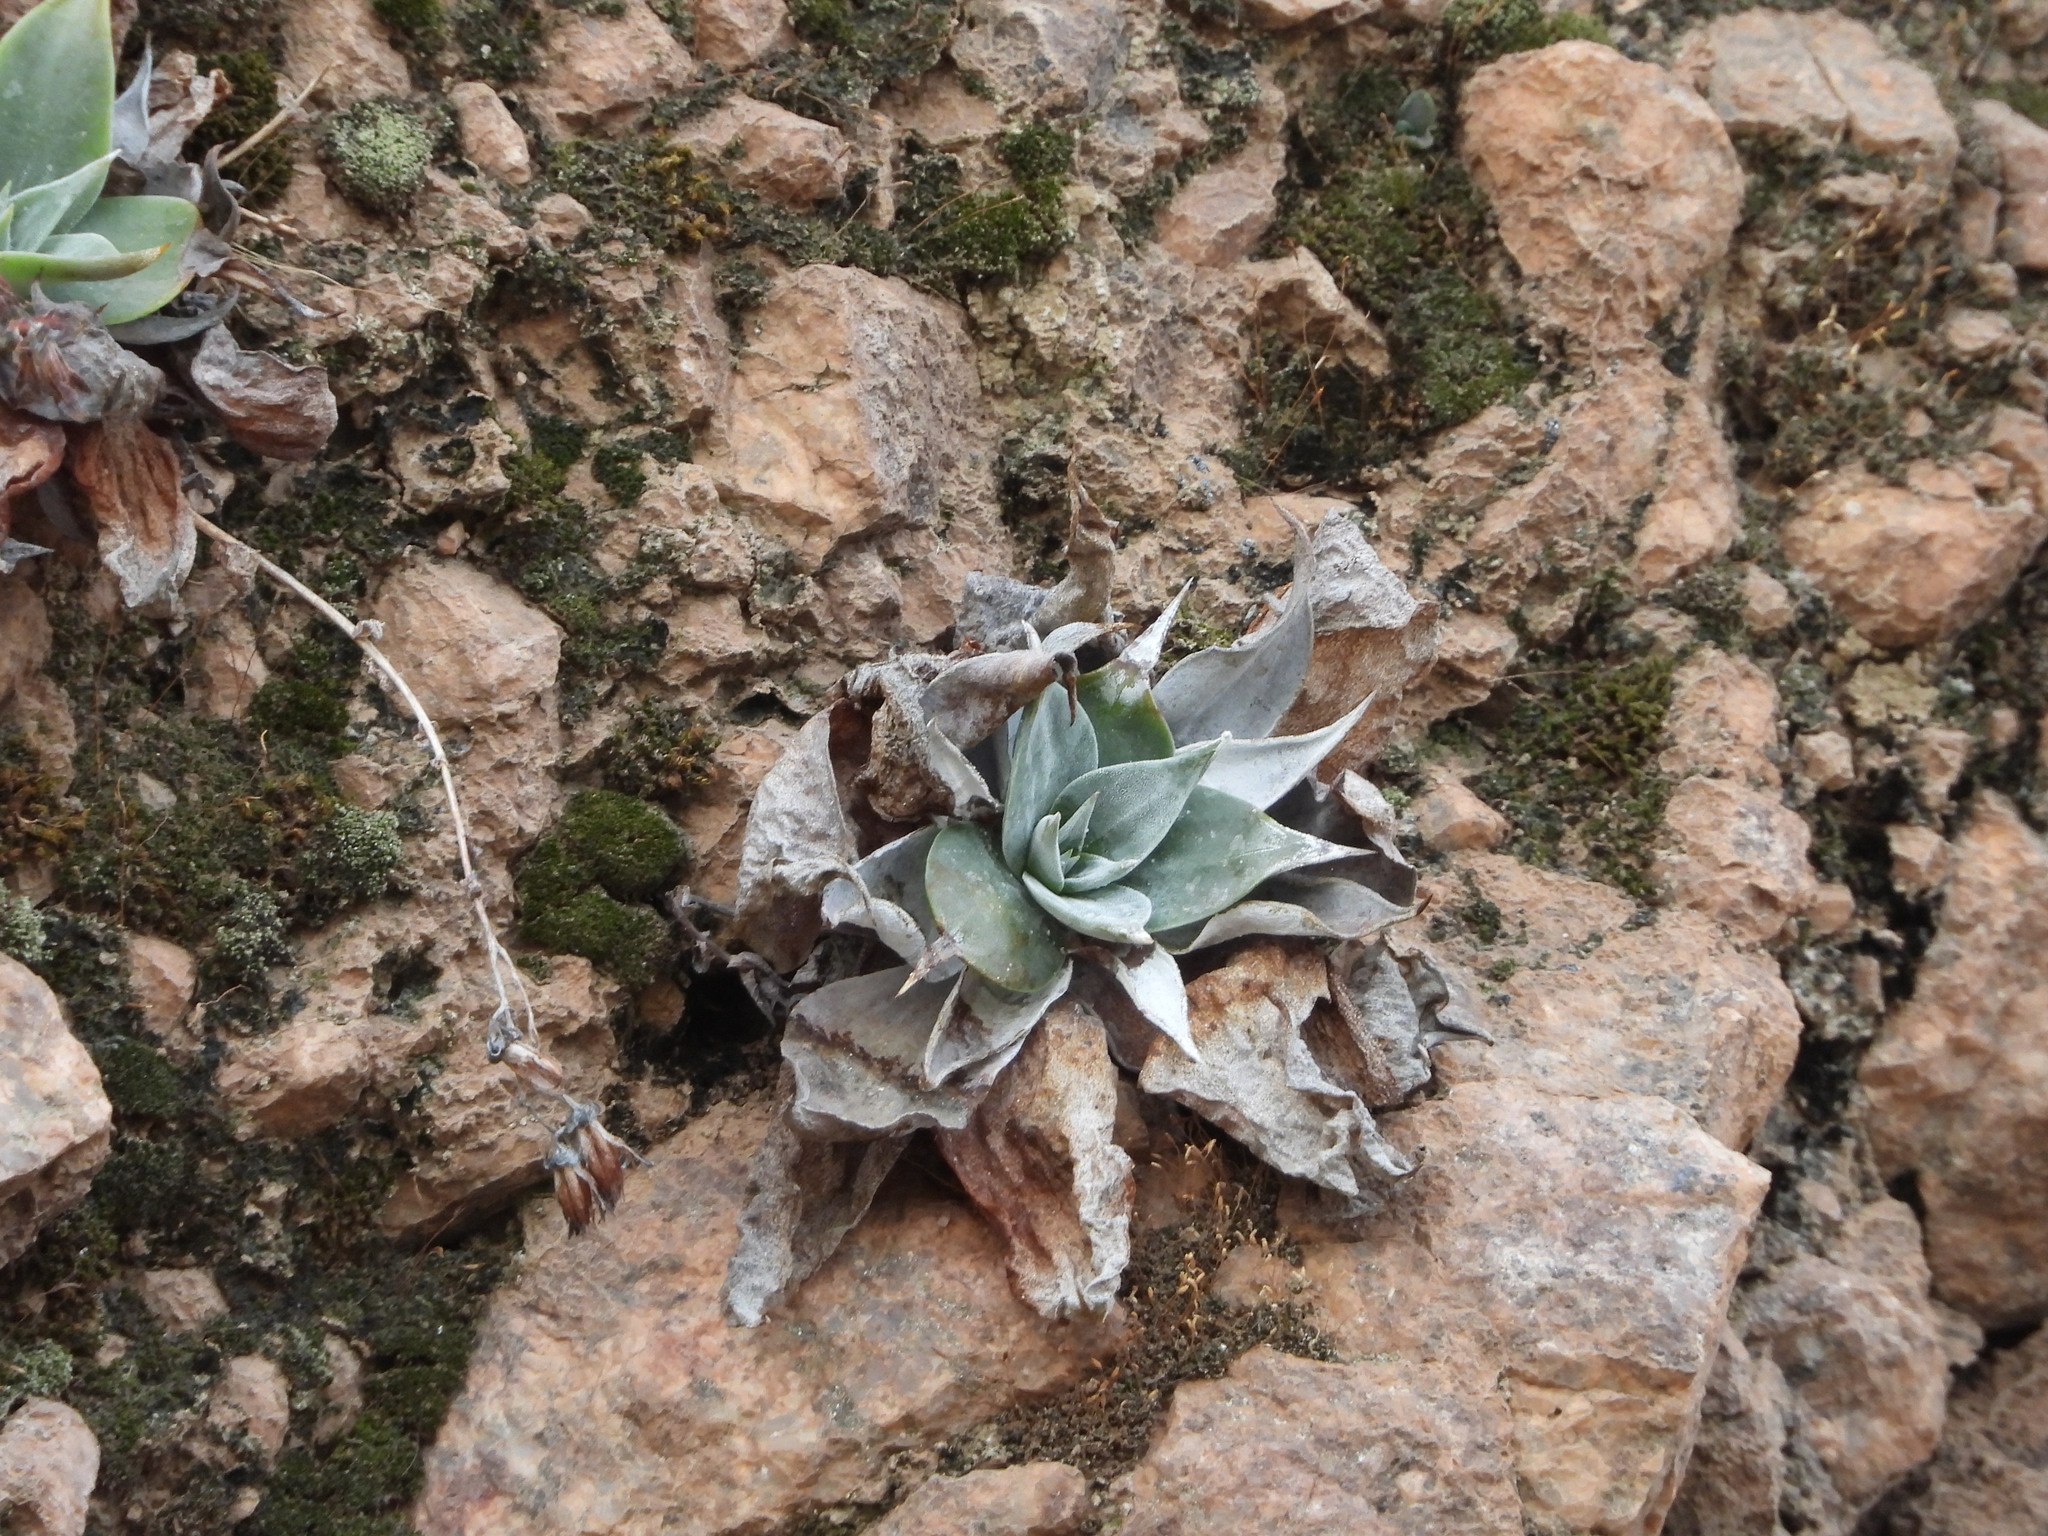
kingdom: Plantae
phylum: Tracheophyta
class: Magnoliopsida
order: Saxifragales
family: Crassulaceae
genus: Dudleya
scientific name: Dudleya arizonica
